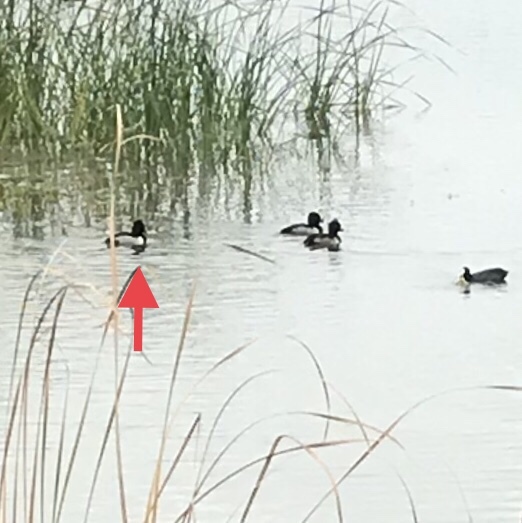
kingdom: Animalia
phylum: Chordata
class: Aves
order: Anseriformes
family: Anatidae
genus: Aythya
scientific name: Aythya collaris
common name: Ring-necked duck
